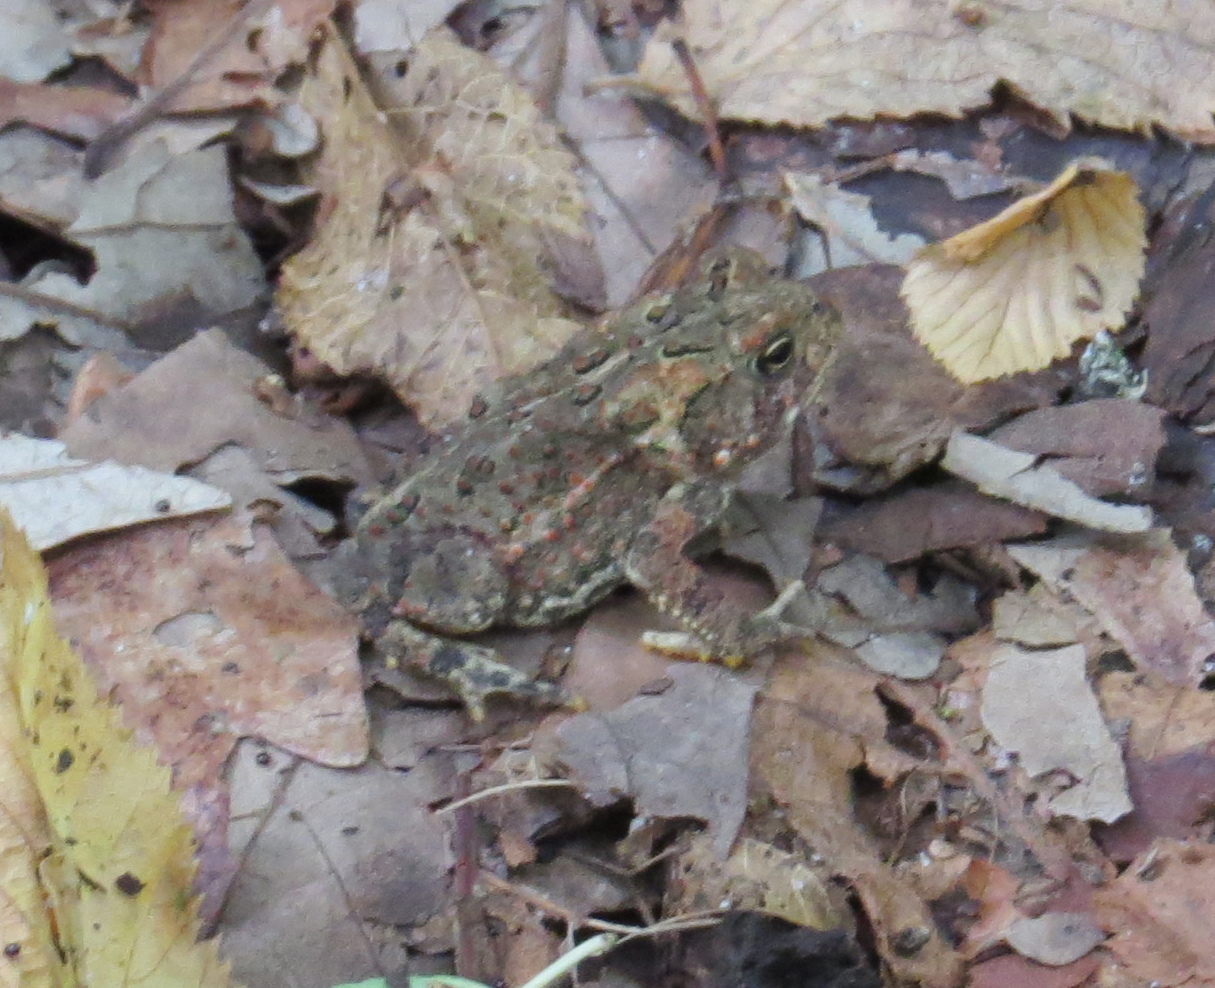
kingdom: Animalia
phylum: Chordata
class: Amphibia
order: Anura
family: Bufonidae
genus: Anaxyrus
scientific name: Anaxyrus americanus
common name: American toad
